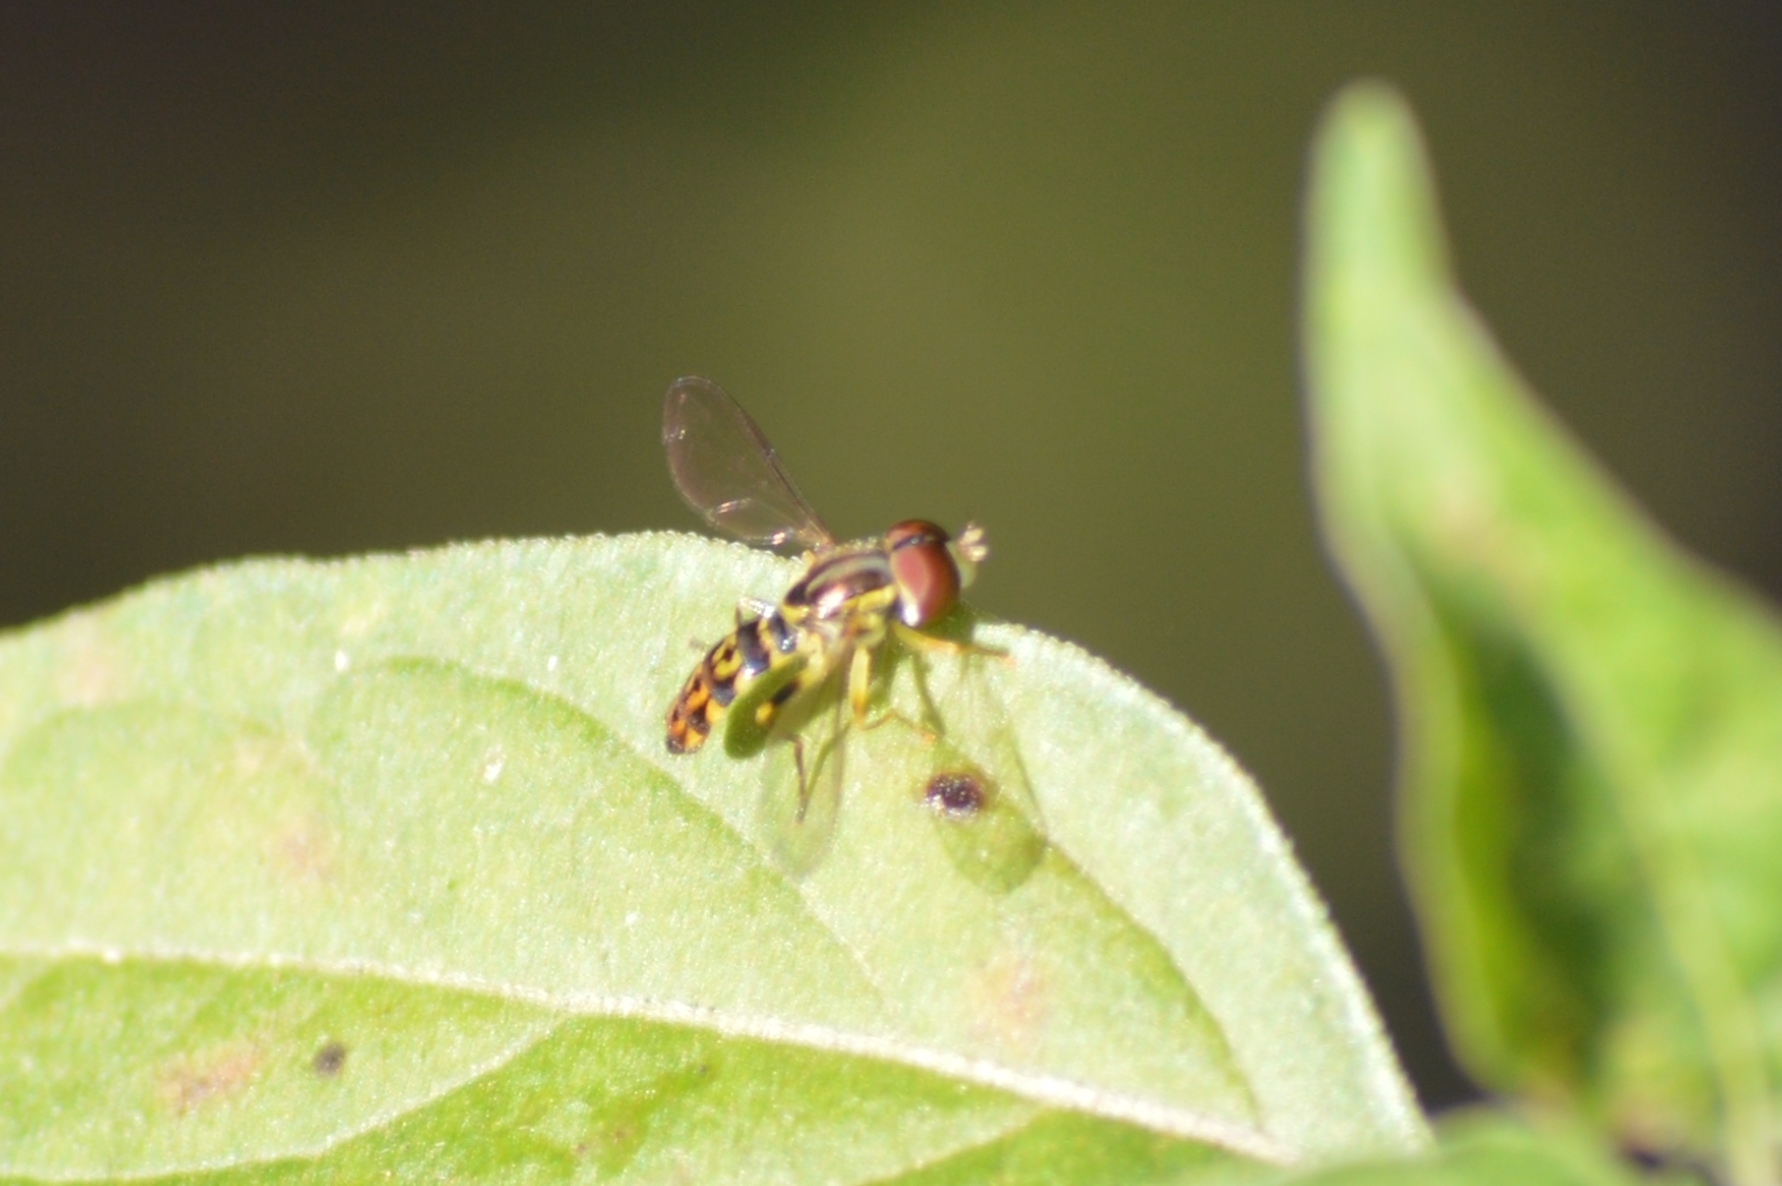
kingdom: Animalia
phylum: Arthropoda
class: Insecta
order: Diptera
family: Syrphidae
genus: Toxomerus
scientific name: Toxomerus virgulatus
